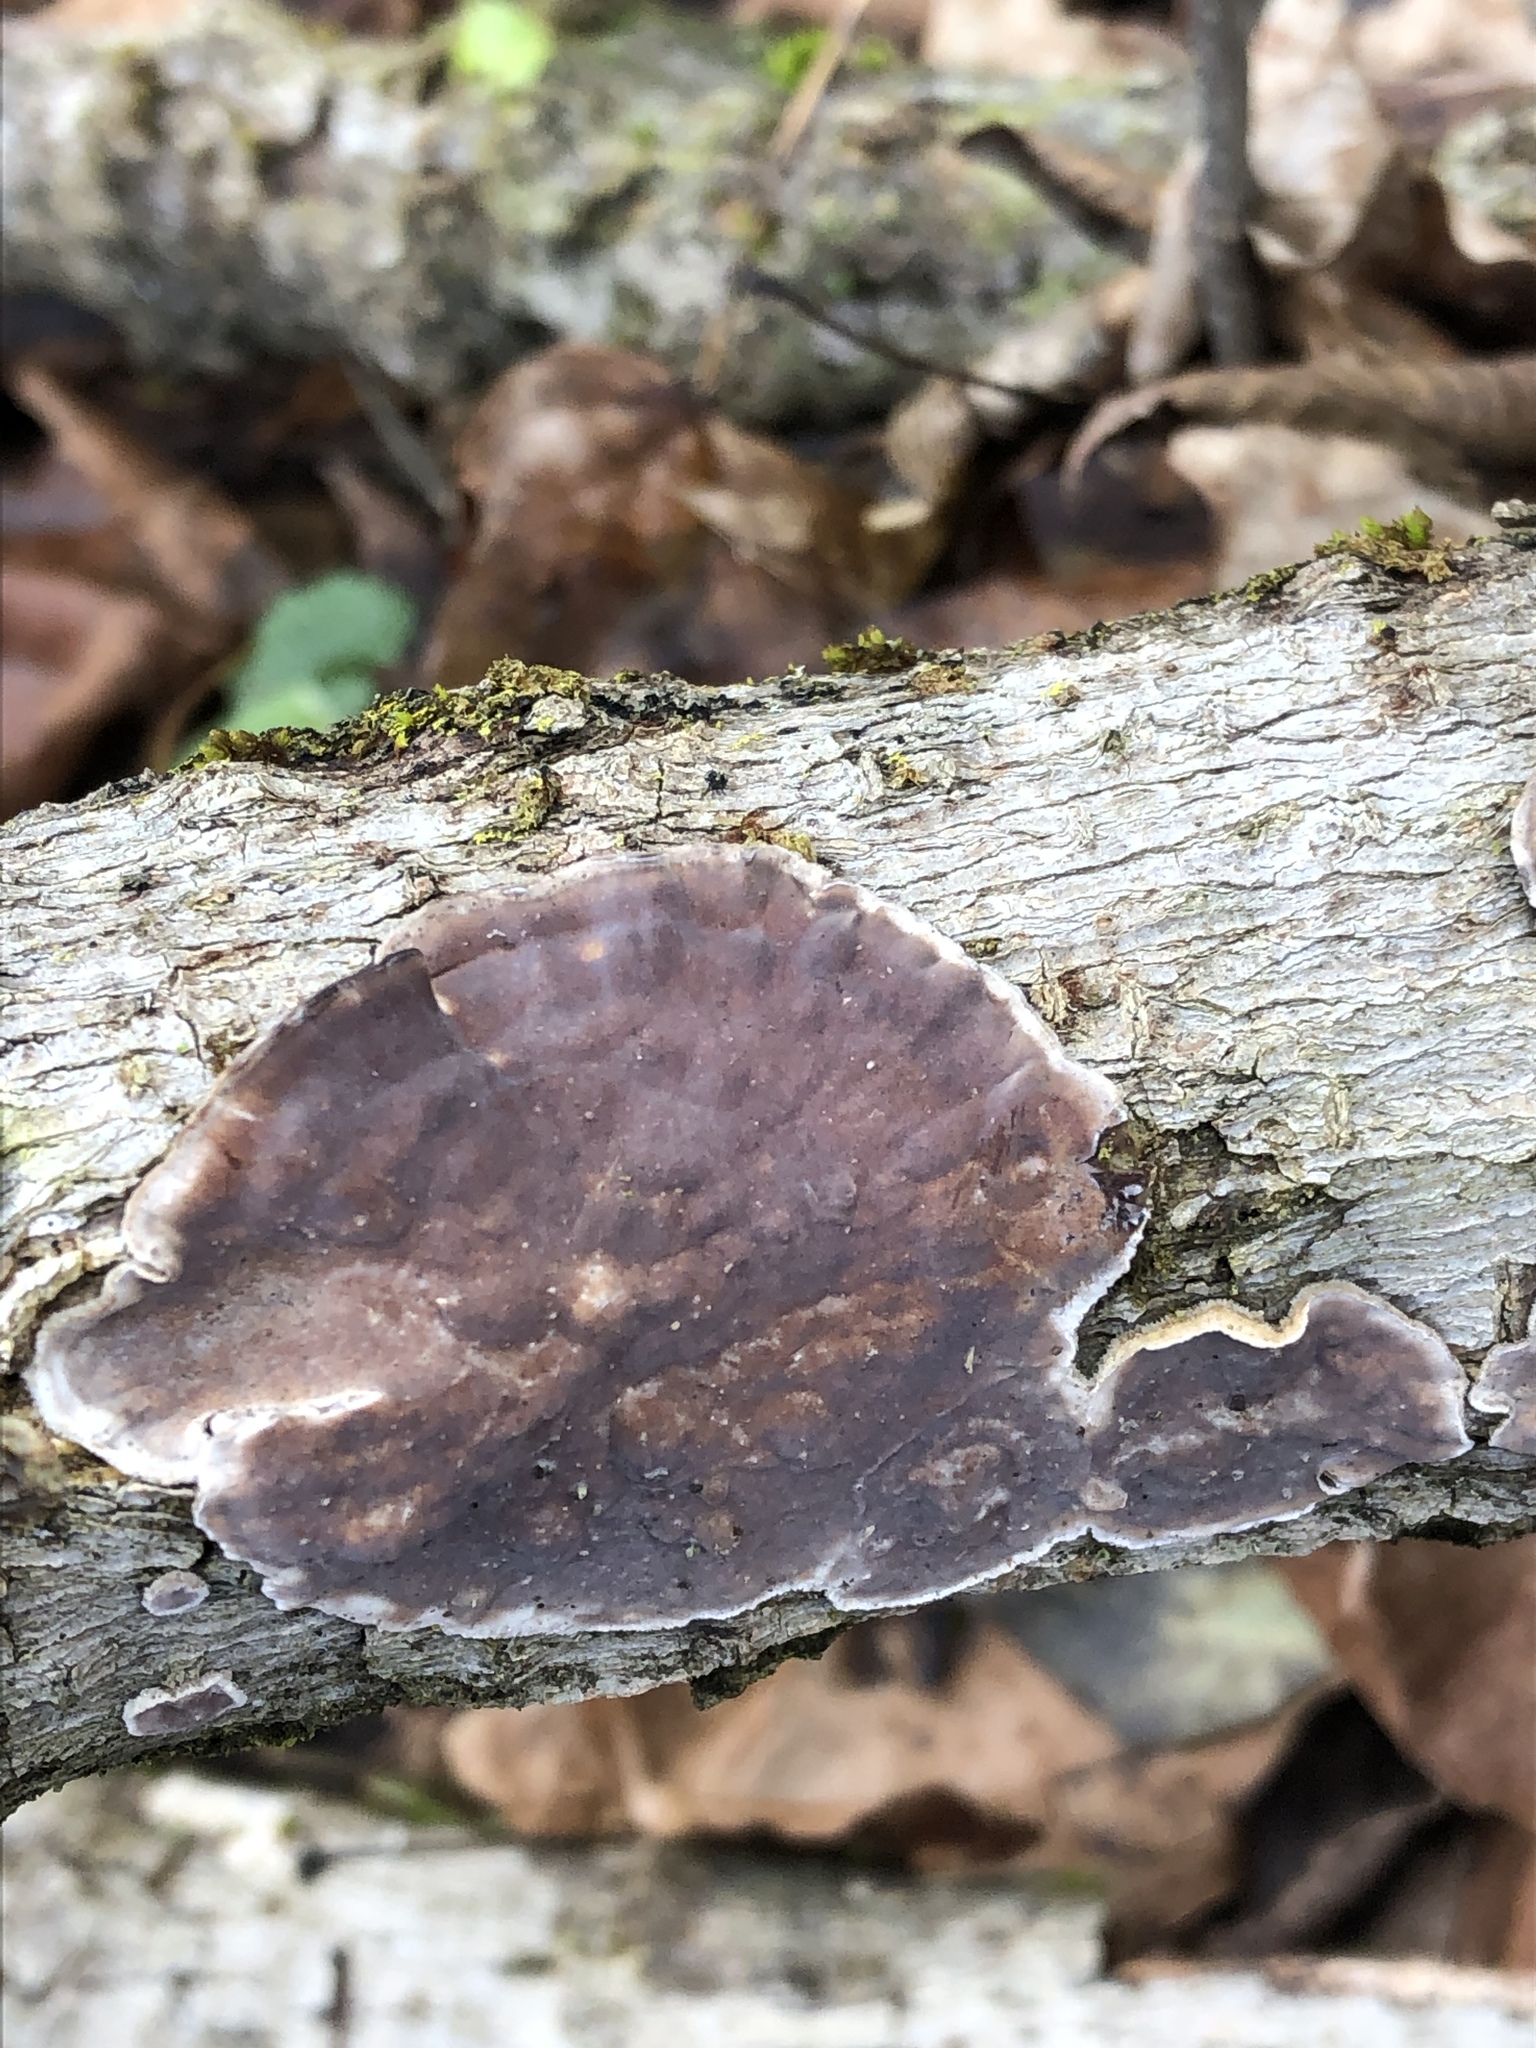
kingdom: Fungi
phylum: Basidiomycota
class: Agaricomycetes
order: Agaricales
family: Cyphellaceae
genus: Chondrostereum
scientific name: Chondrostereum purpureum
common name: Silver leaf disease
